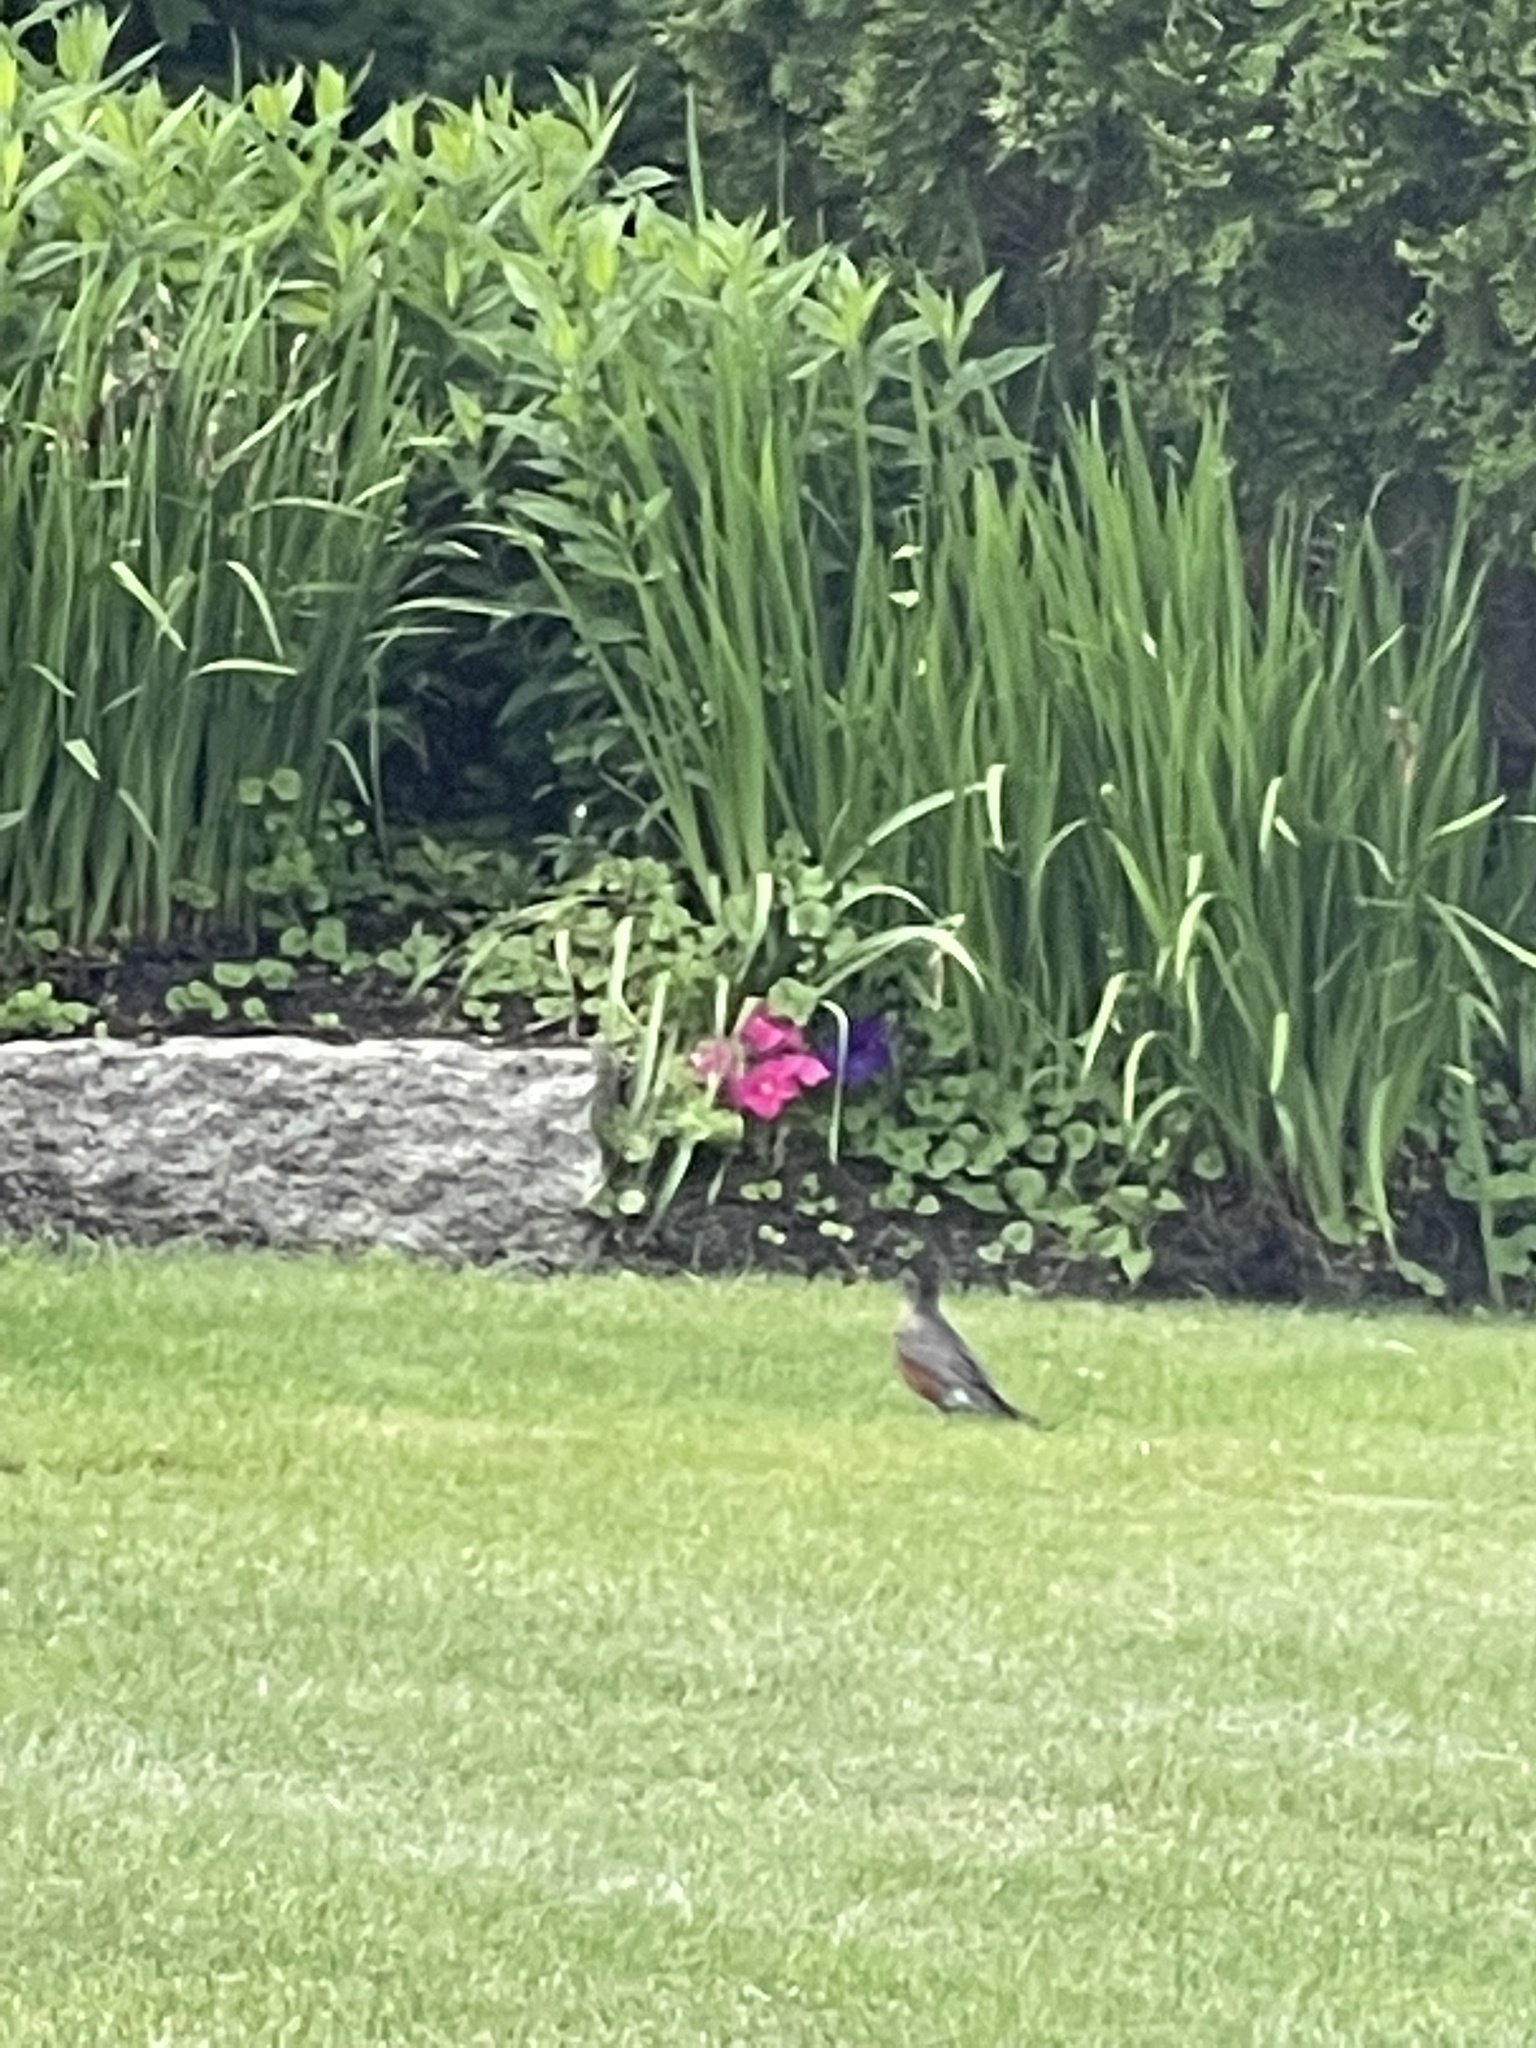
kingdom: Animalia
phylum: Chordata
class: Aves
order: Passeriformes
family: Turdidae
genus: Turdus
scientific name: Turdus migratorius
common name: American robin
